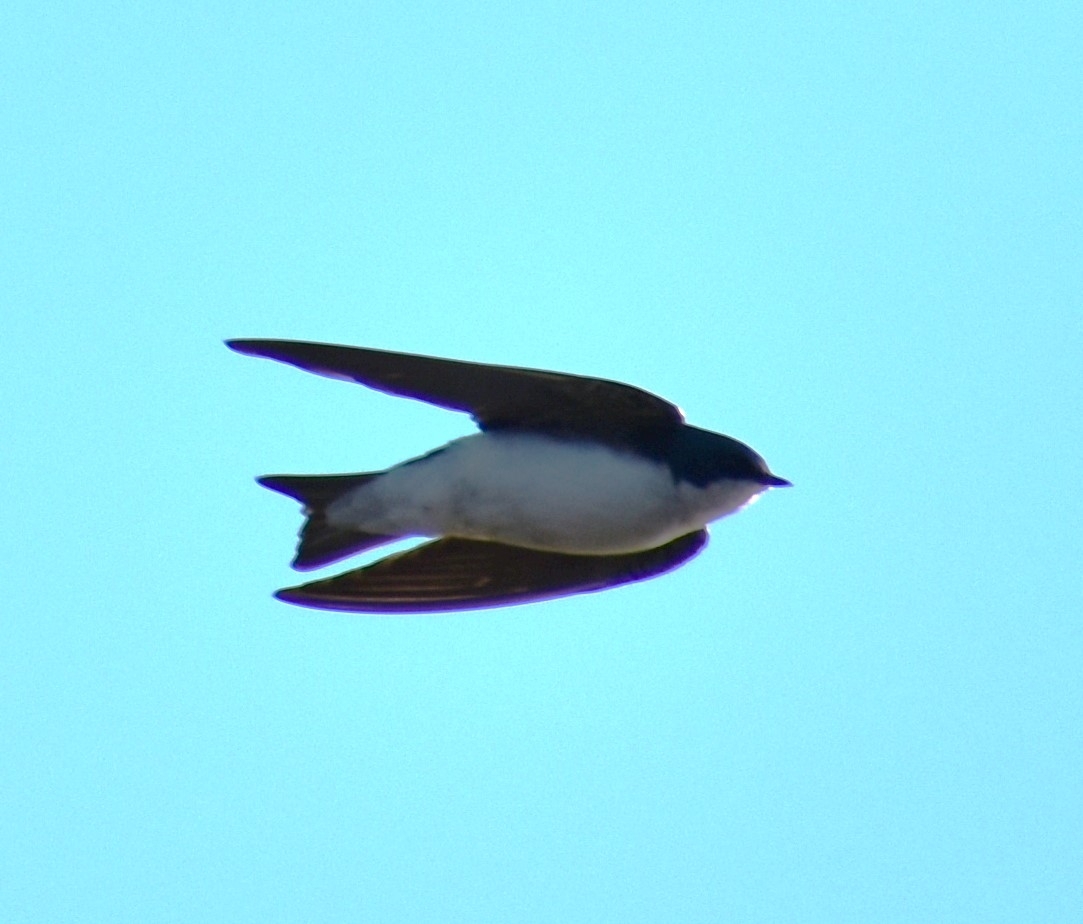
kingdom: Animalia
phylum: Chordata
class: Aves
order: Passeriformes
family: Hirundinidae
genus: Tachycineta
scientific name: Tachycineta bicolor
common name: Tree swallow
